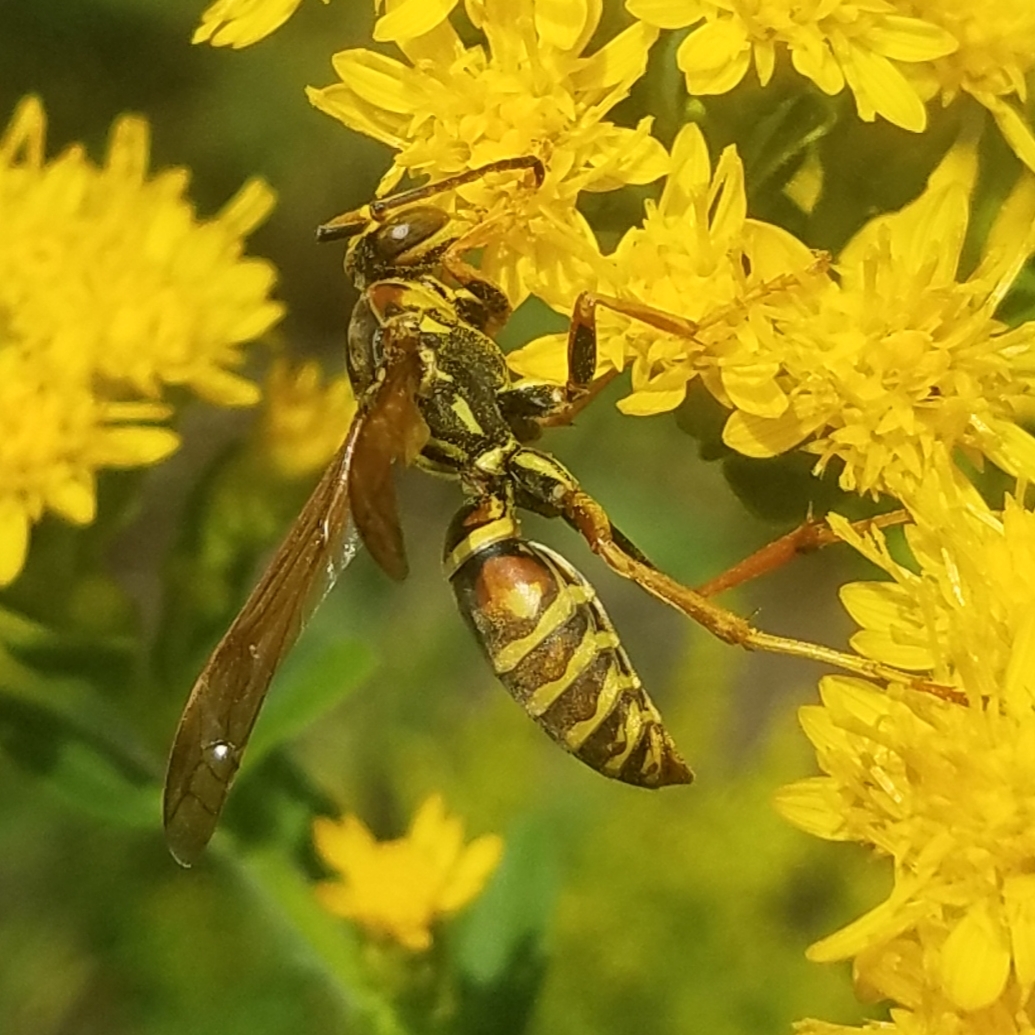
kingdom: Animalia
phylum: Arthropoda
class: Insecta
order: Hymenoptera
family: Eumenidae
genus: Polistes
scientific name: Polistes fuscatus
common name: Dark paper wasp
